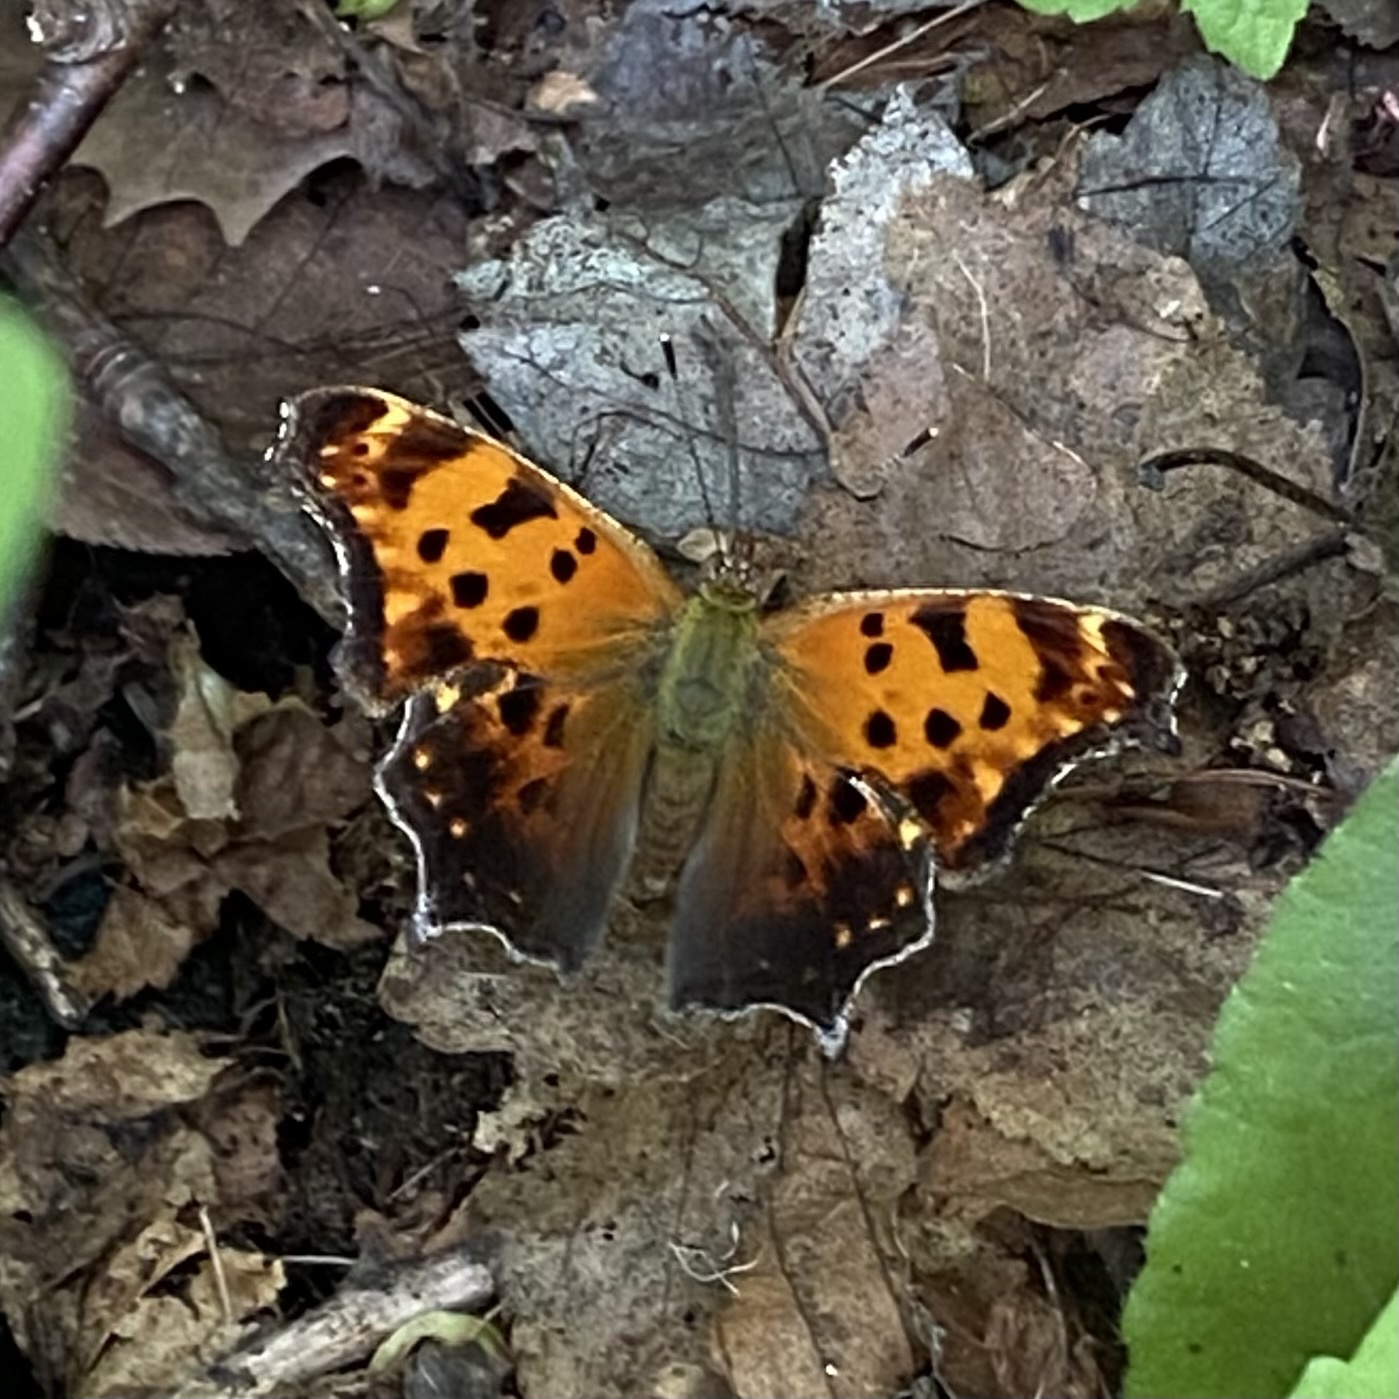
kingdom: Animalia
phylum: Arthropoda
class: Insecta
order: Lepidoptera
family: Nymphalidae
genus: Polygonia
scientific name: Polygonia comma
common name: Eastern comma
